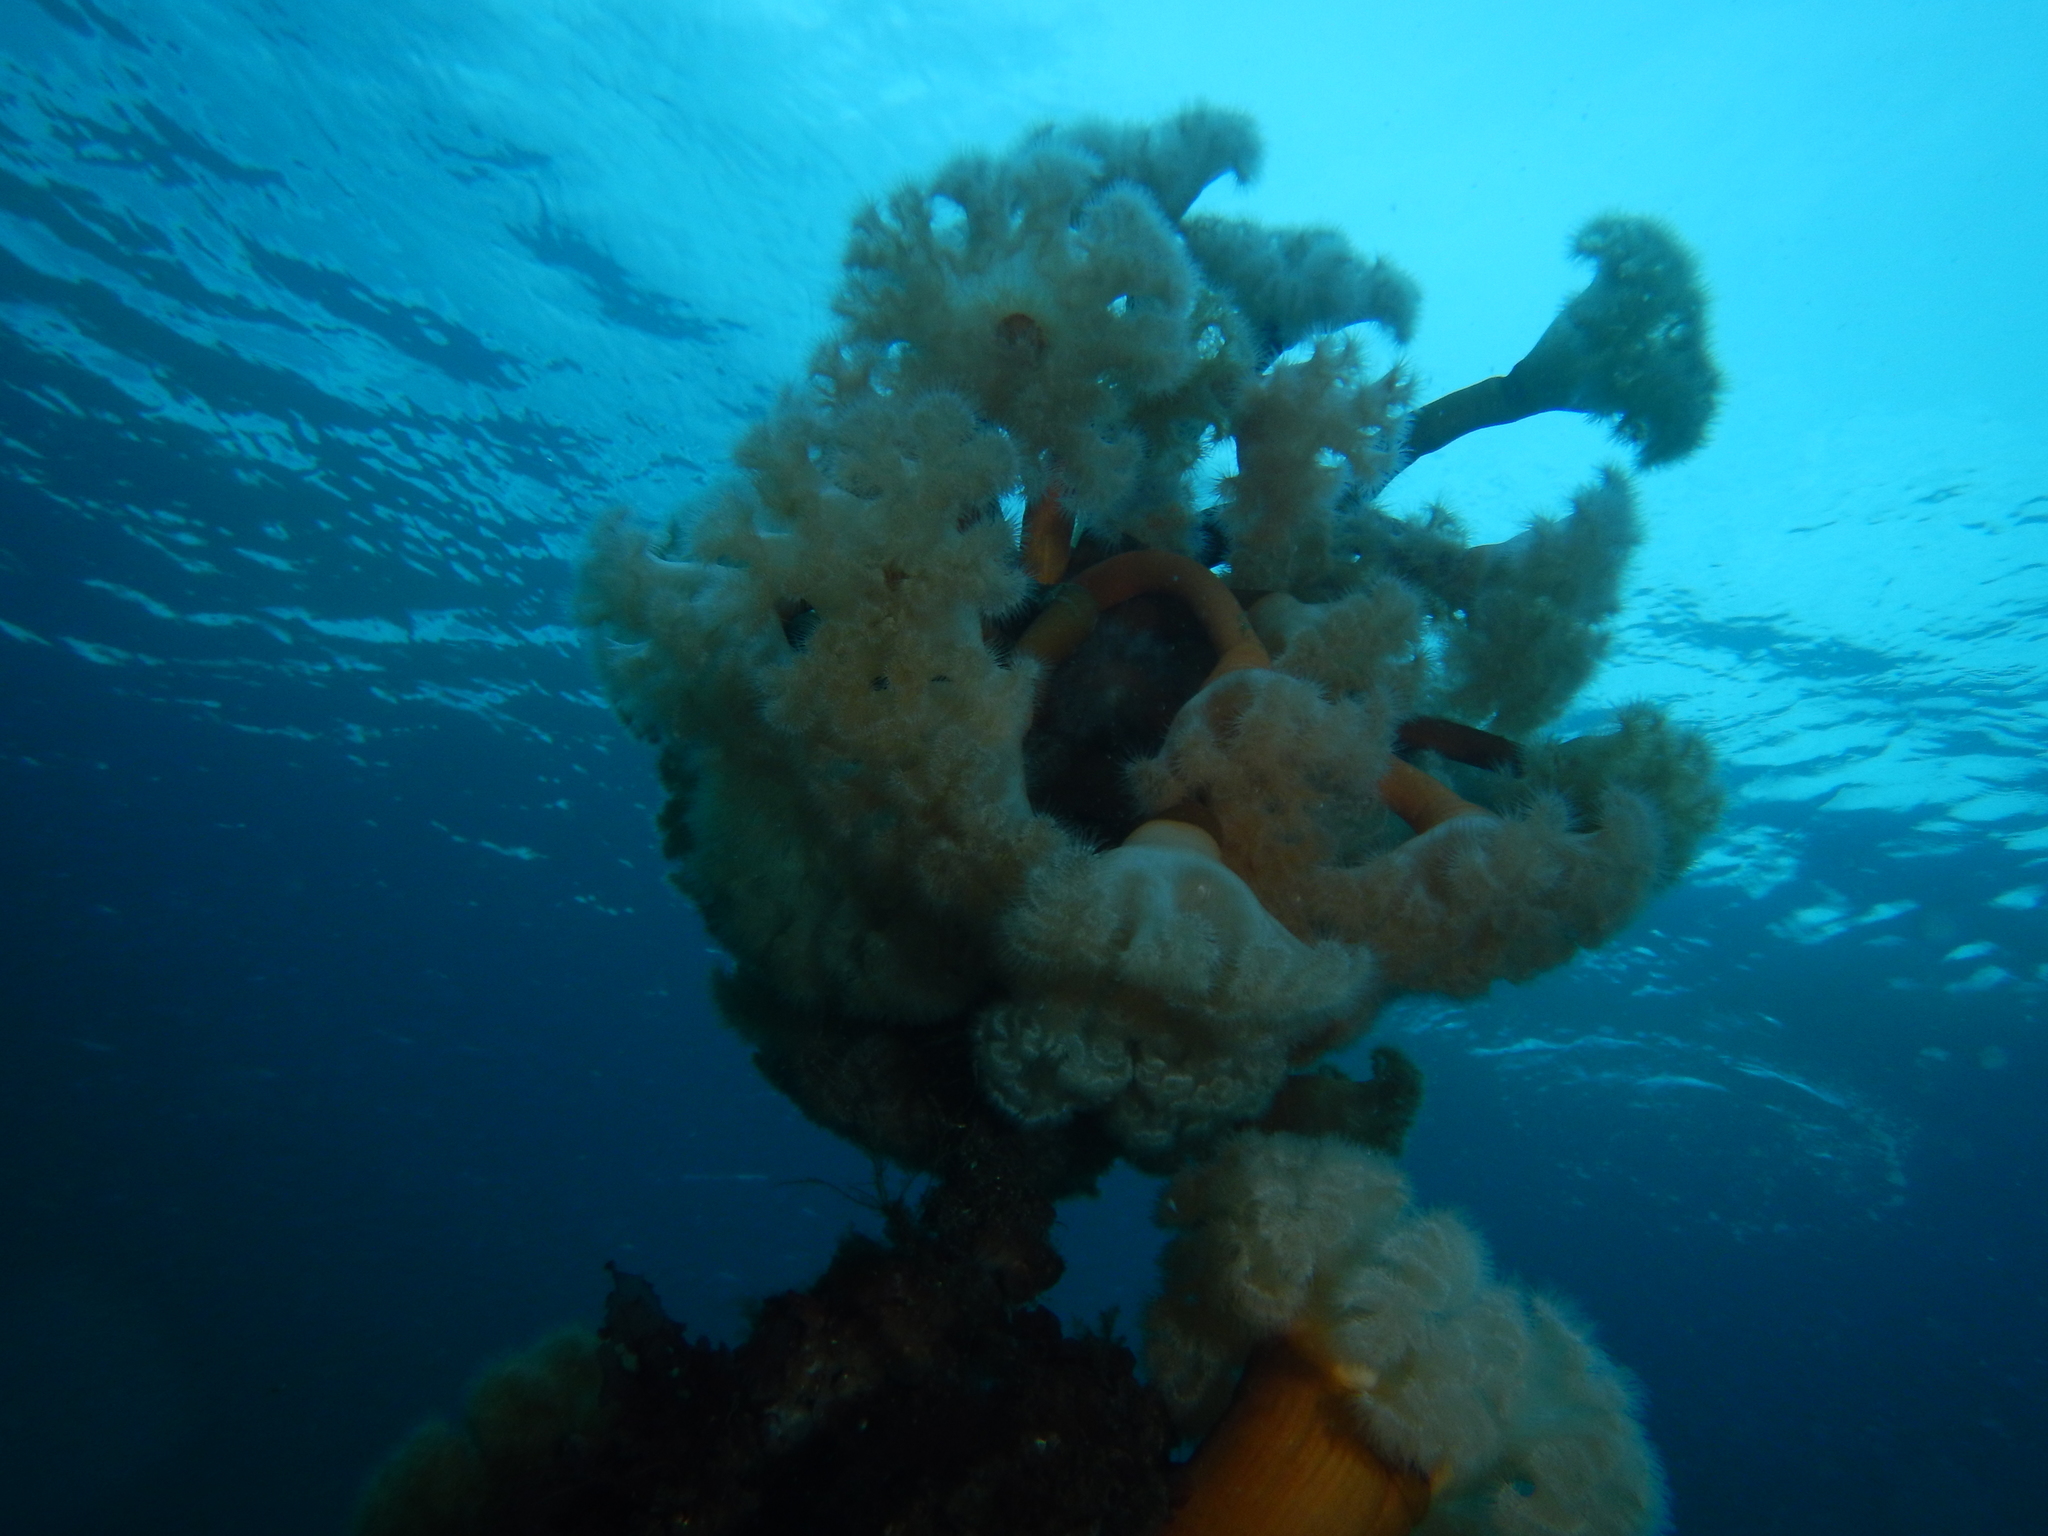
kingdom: Animalia
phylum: Cnidaria
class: Anthozoa
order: Actiniaria
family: Metridiidae
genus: Metridium
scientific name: Metridium senile
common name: Clonal plumose anemone
